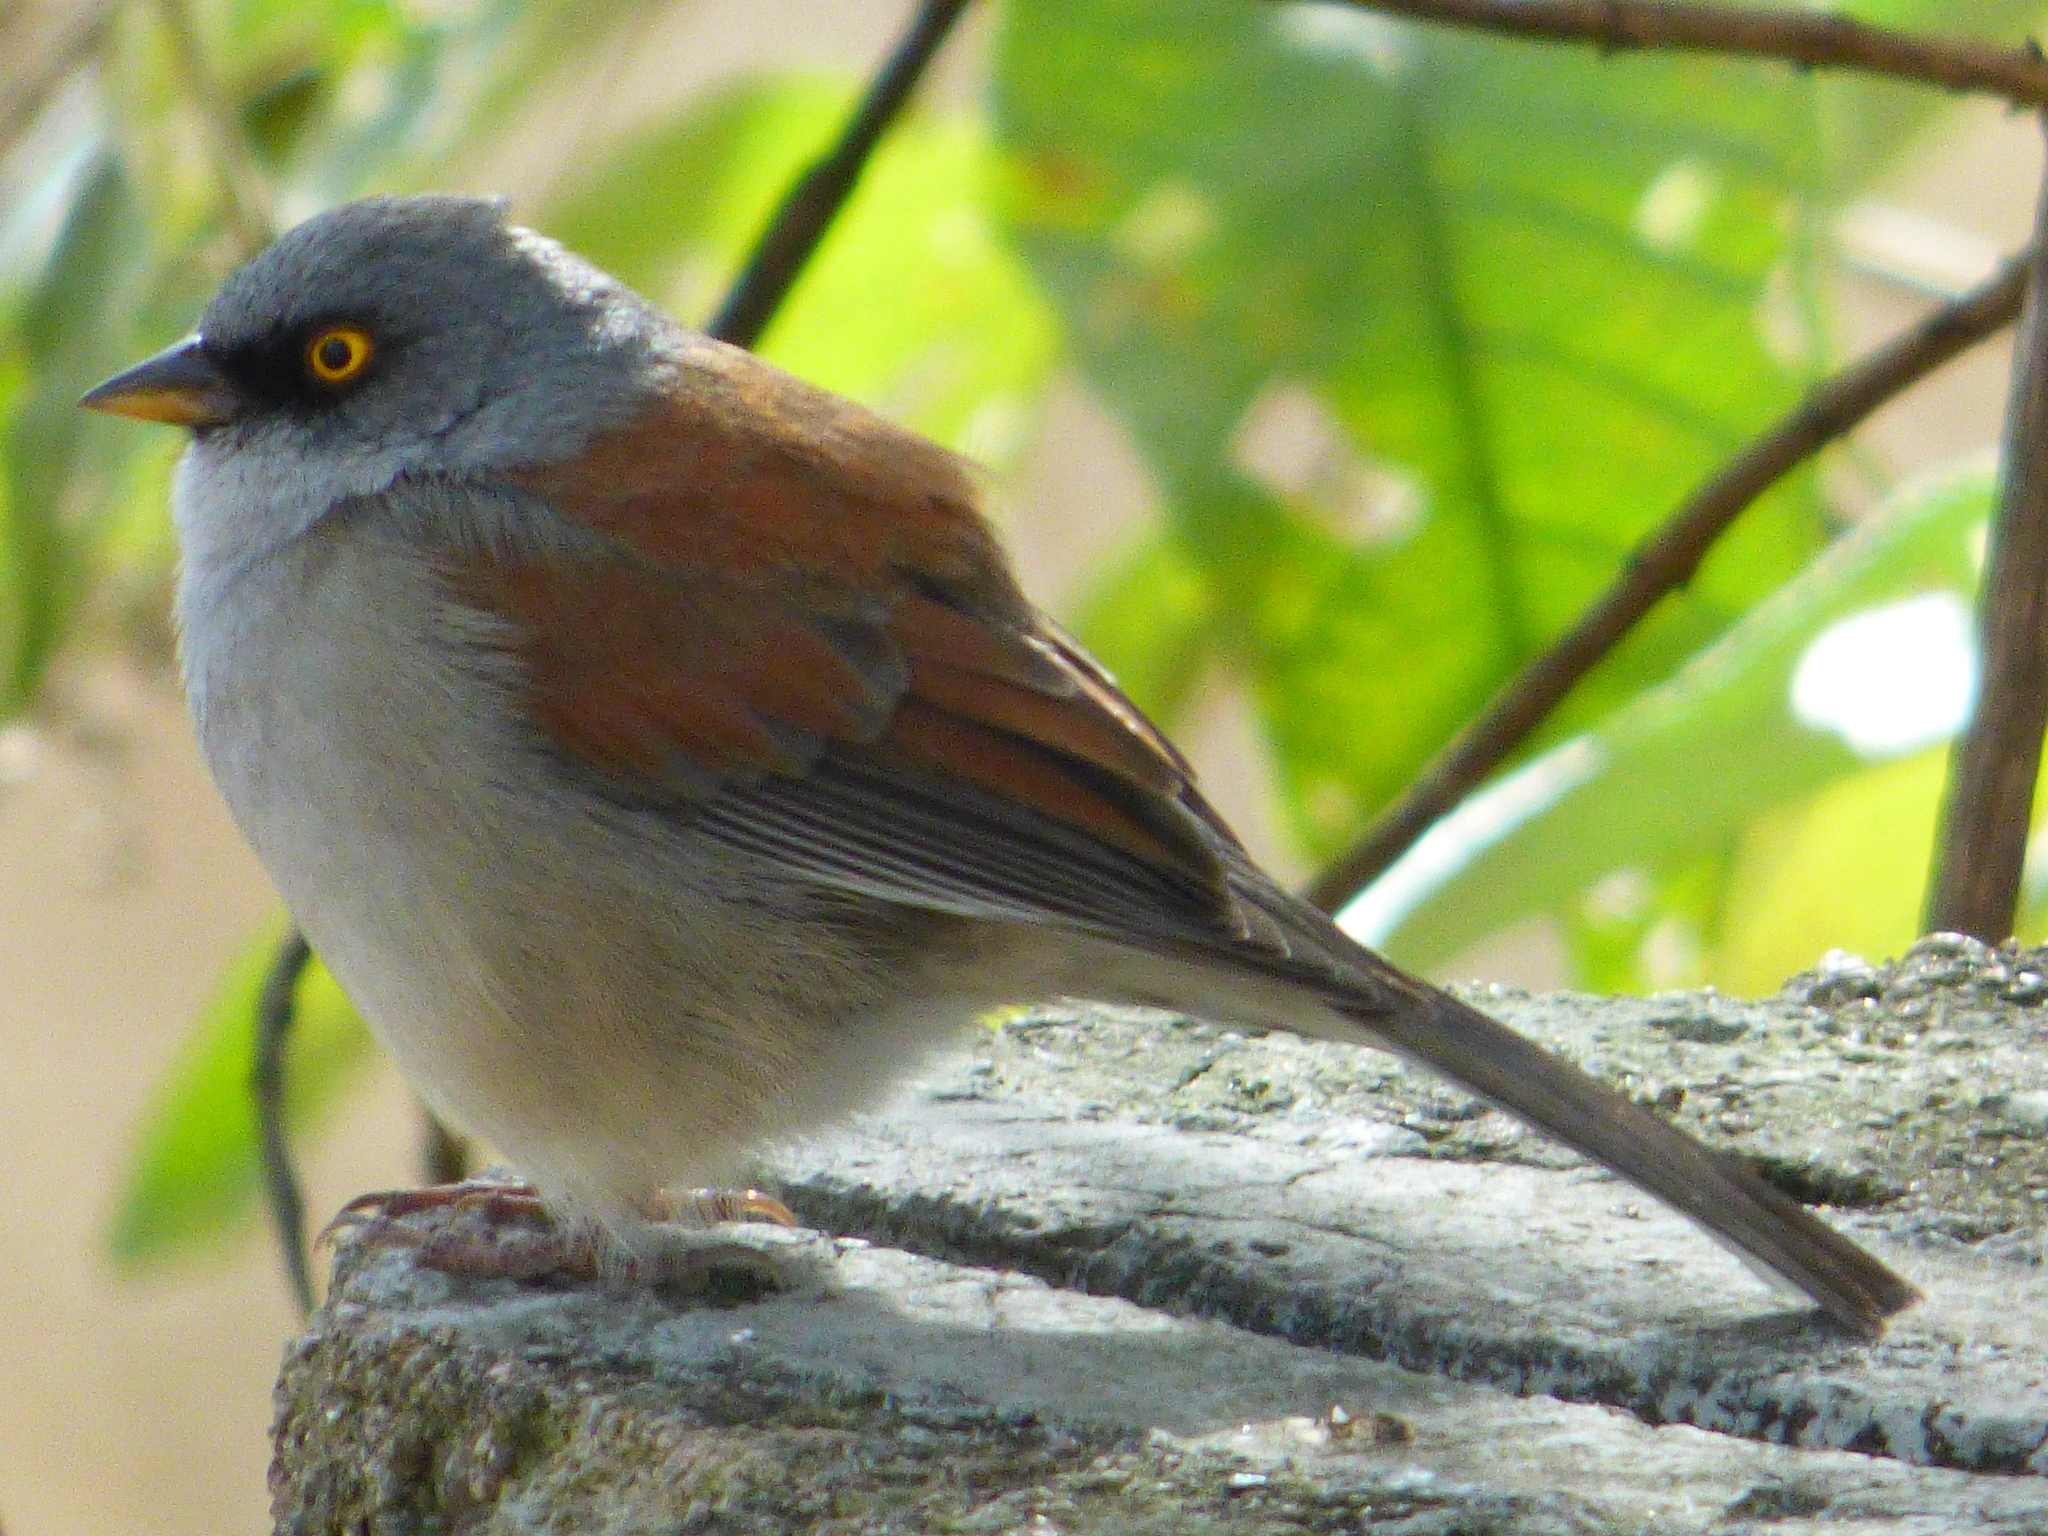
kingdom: Animalia
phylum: Chordata
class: Aves
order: Passeriformes
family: Passerellidae
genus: Junco
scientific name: Junco phaeonotus
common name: Yellow-eyed junco
